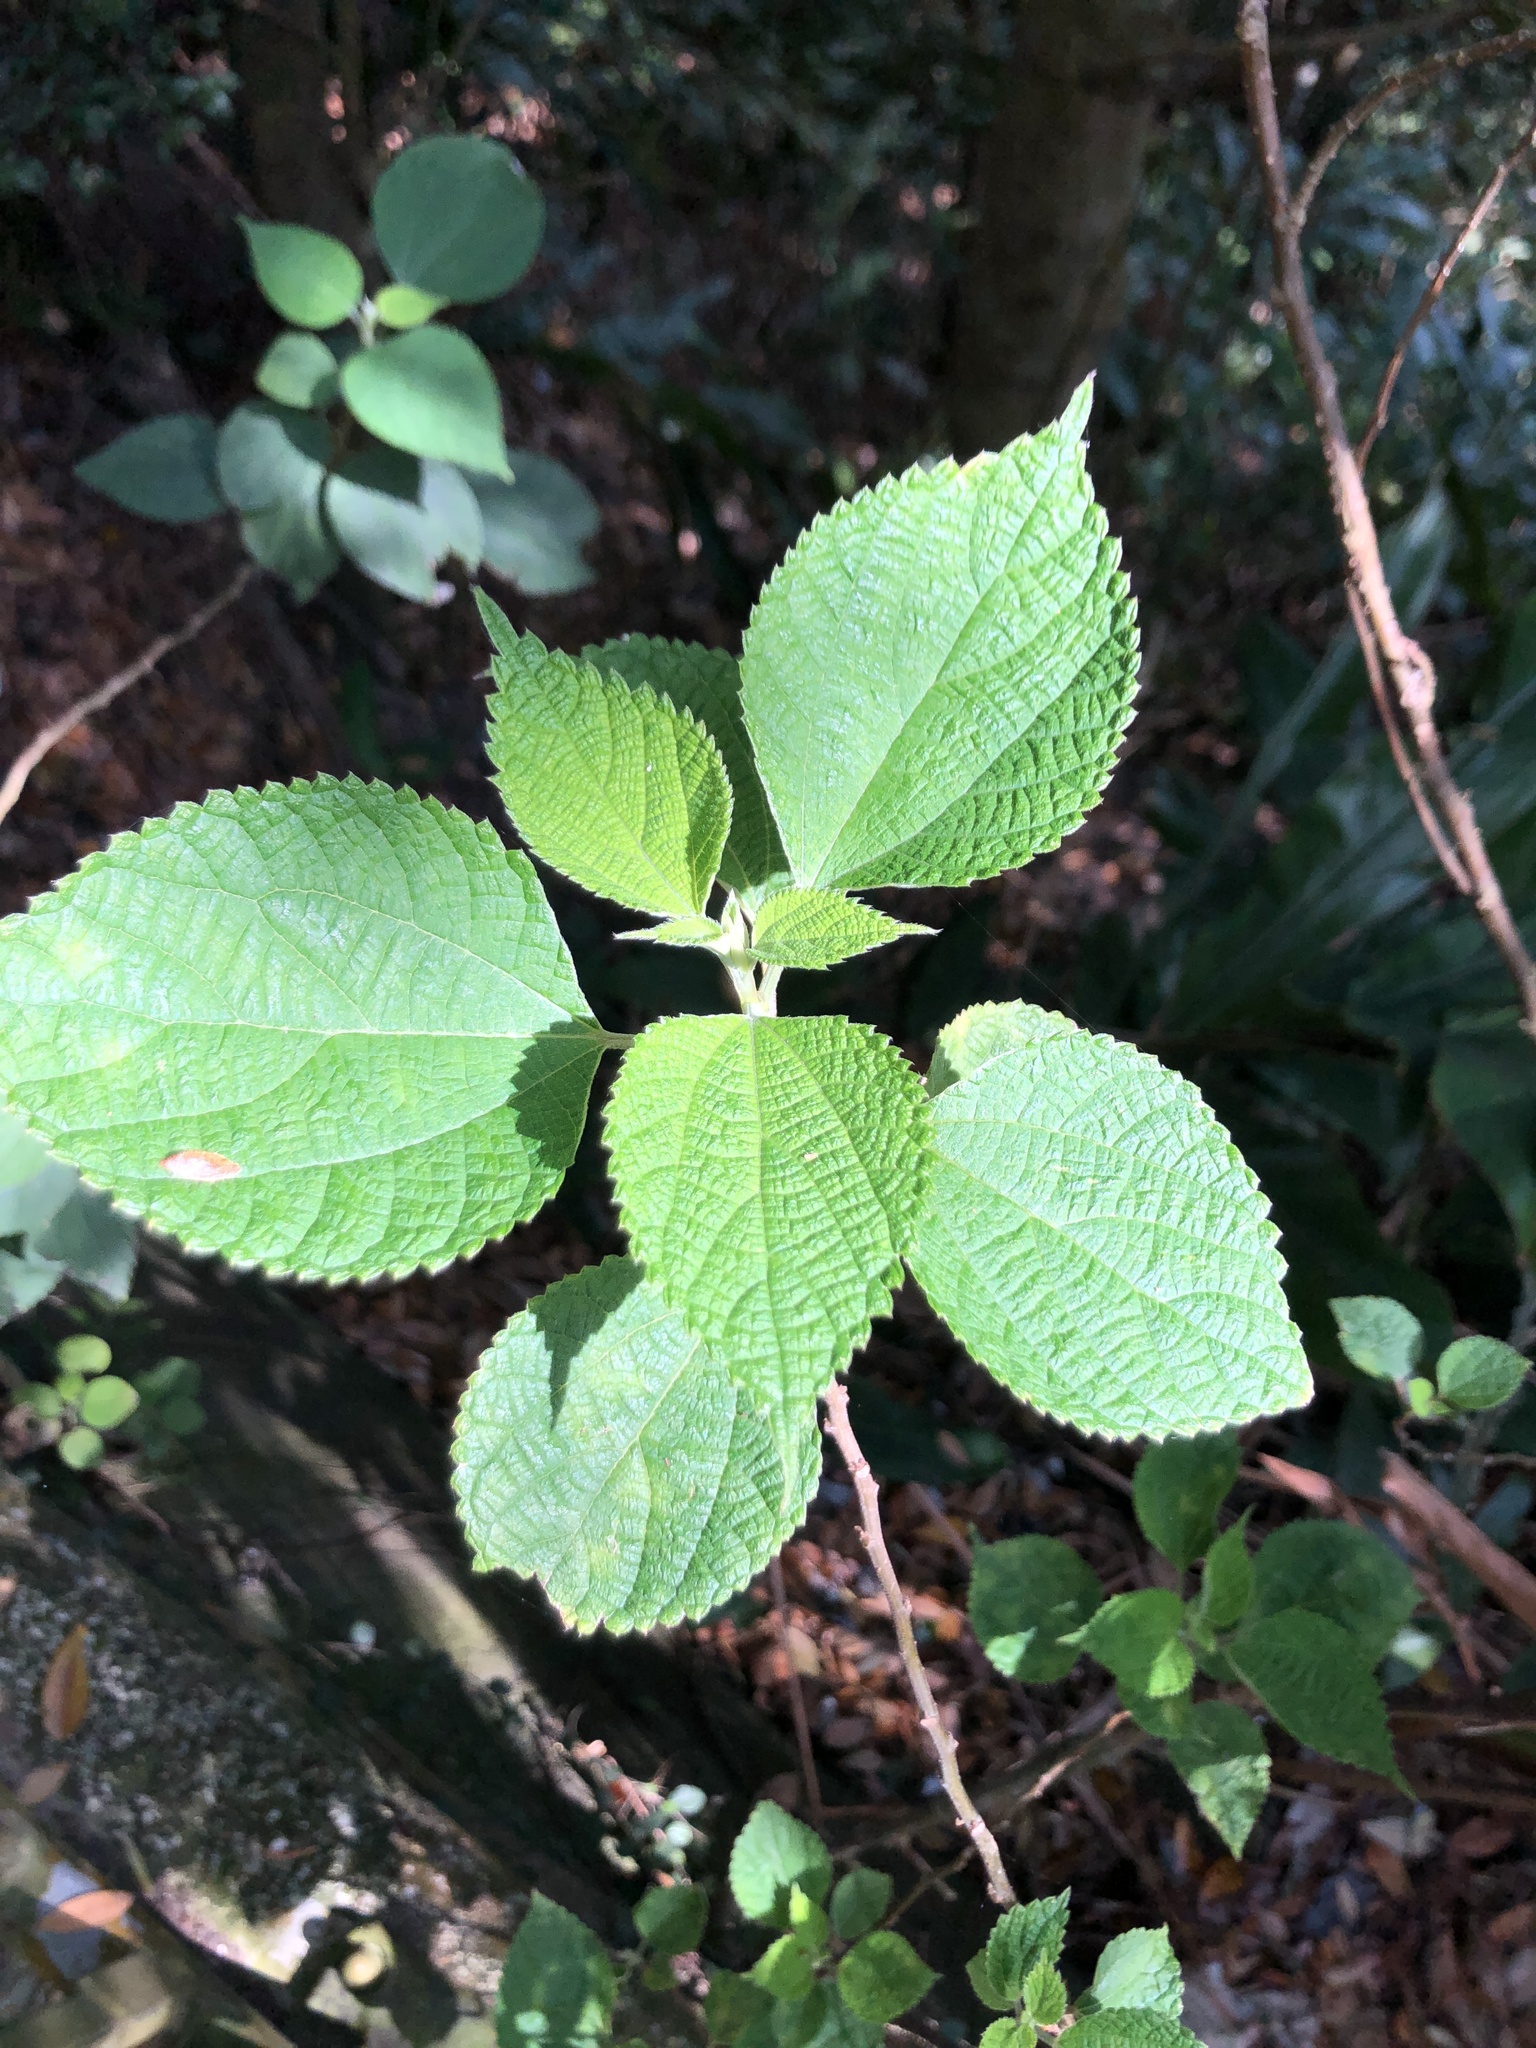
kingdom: Plantae
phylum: Tracheophyta
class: Magnoliopsida
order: Rosales
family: Urticaceae
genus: Boehmeria
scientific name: Boehmeria nivea
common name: Ramie chinese grass
